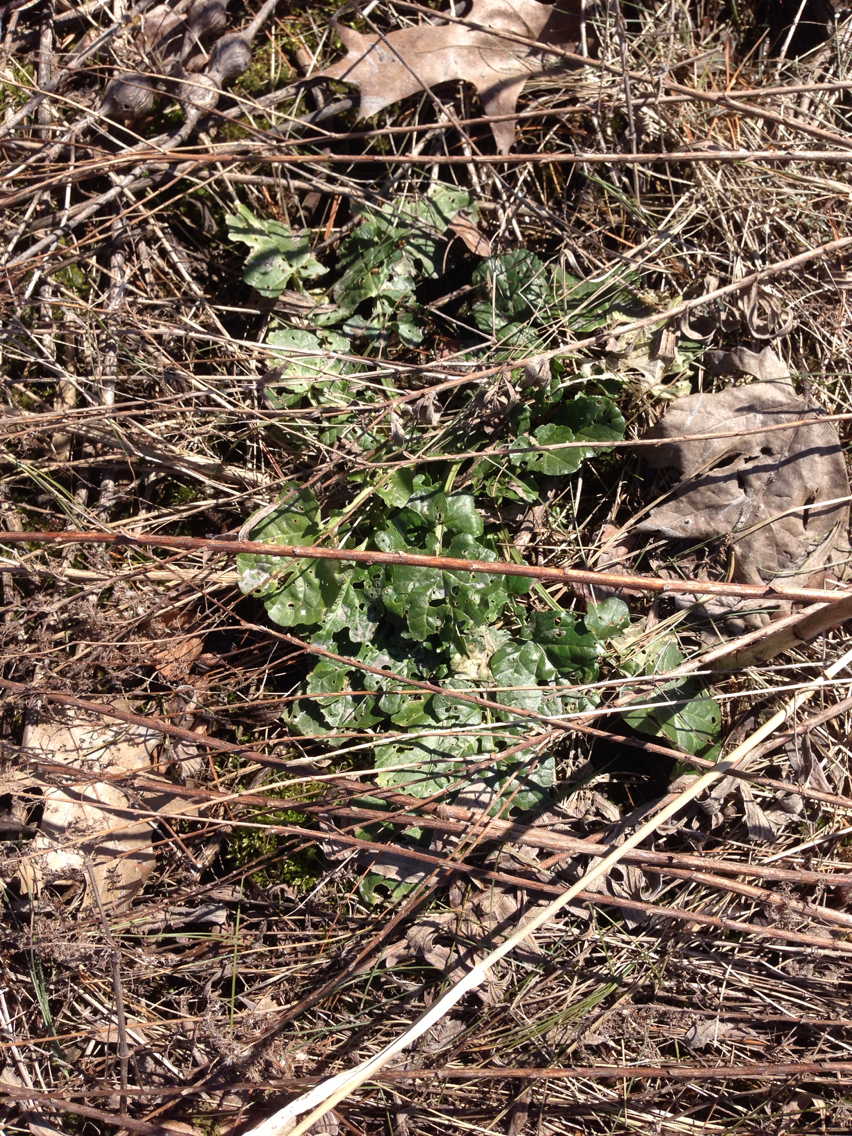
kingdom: Plantae
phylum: Tracheophyta
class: Magnoliopsida
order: Brassicales
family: Brassicaceae
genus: Barbarea
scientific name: Barbarea vulgaris
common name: Cressy-greens
